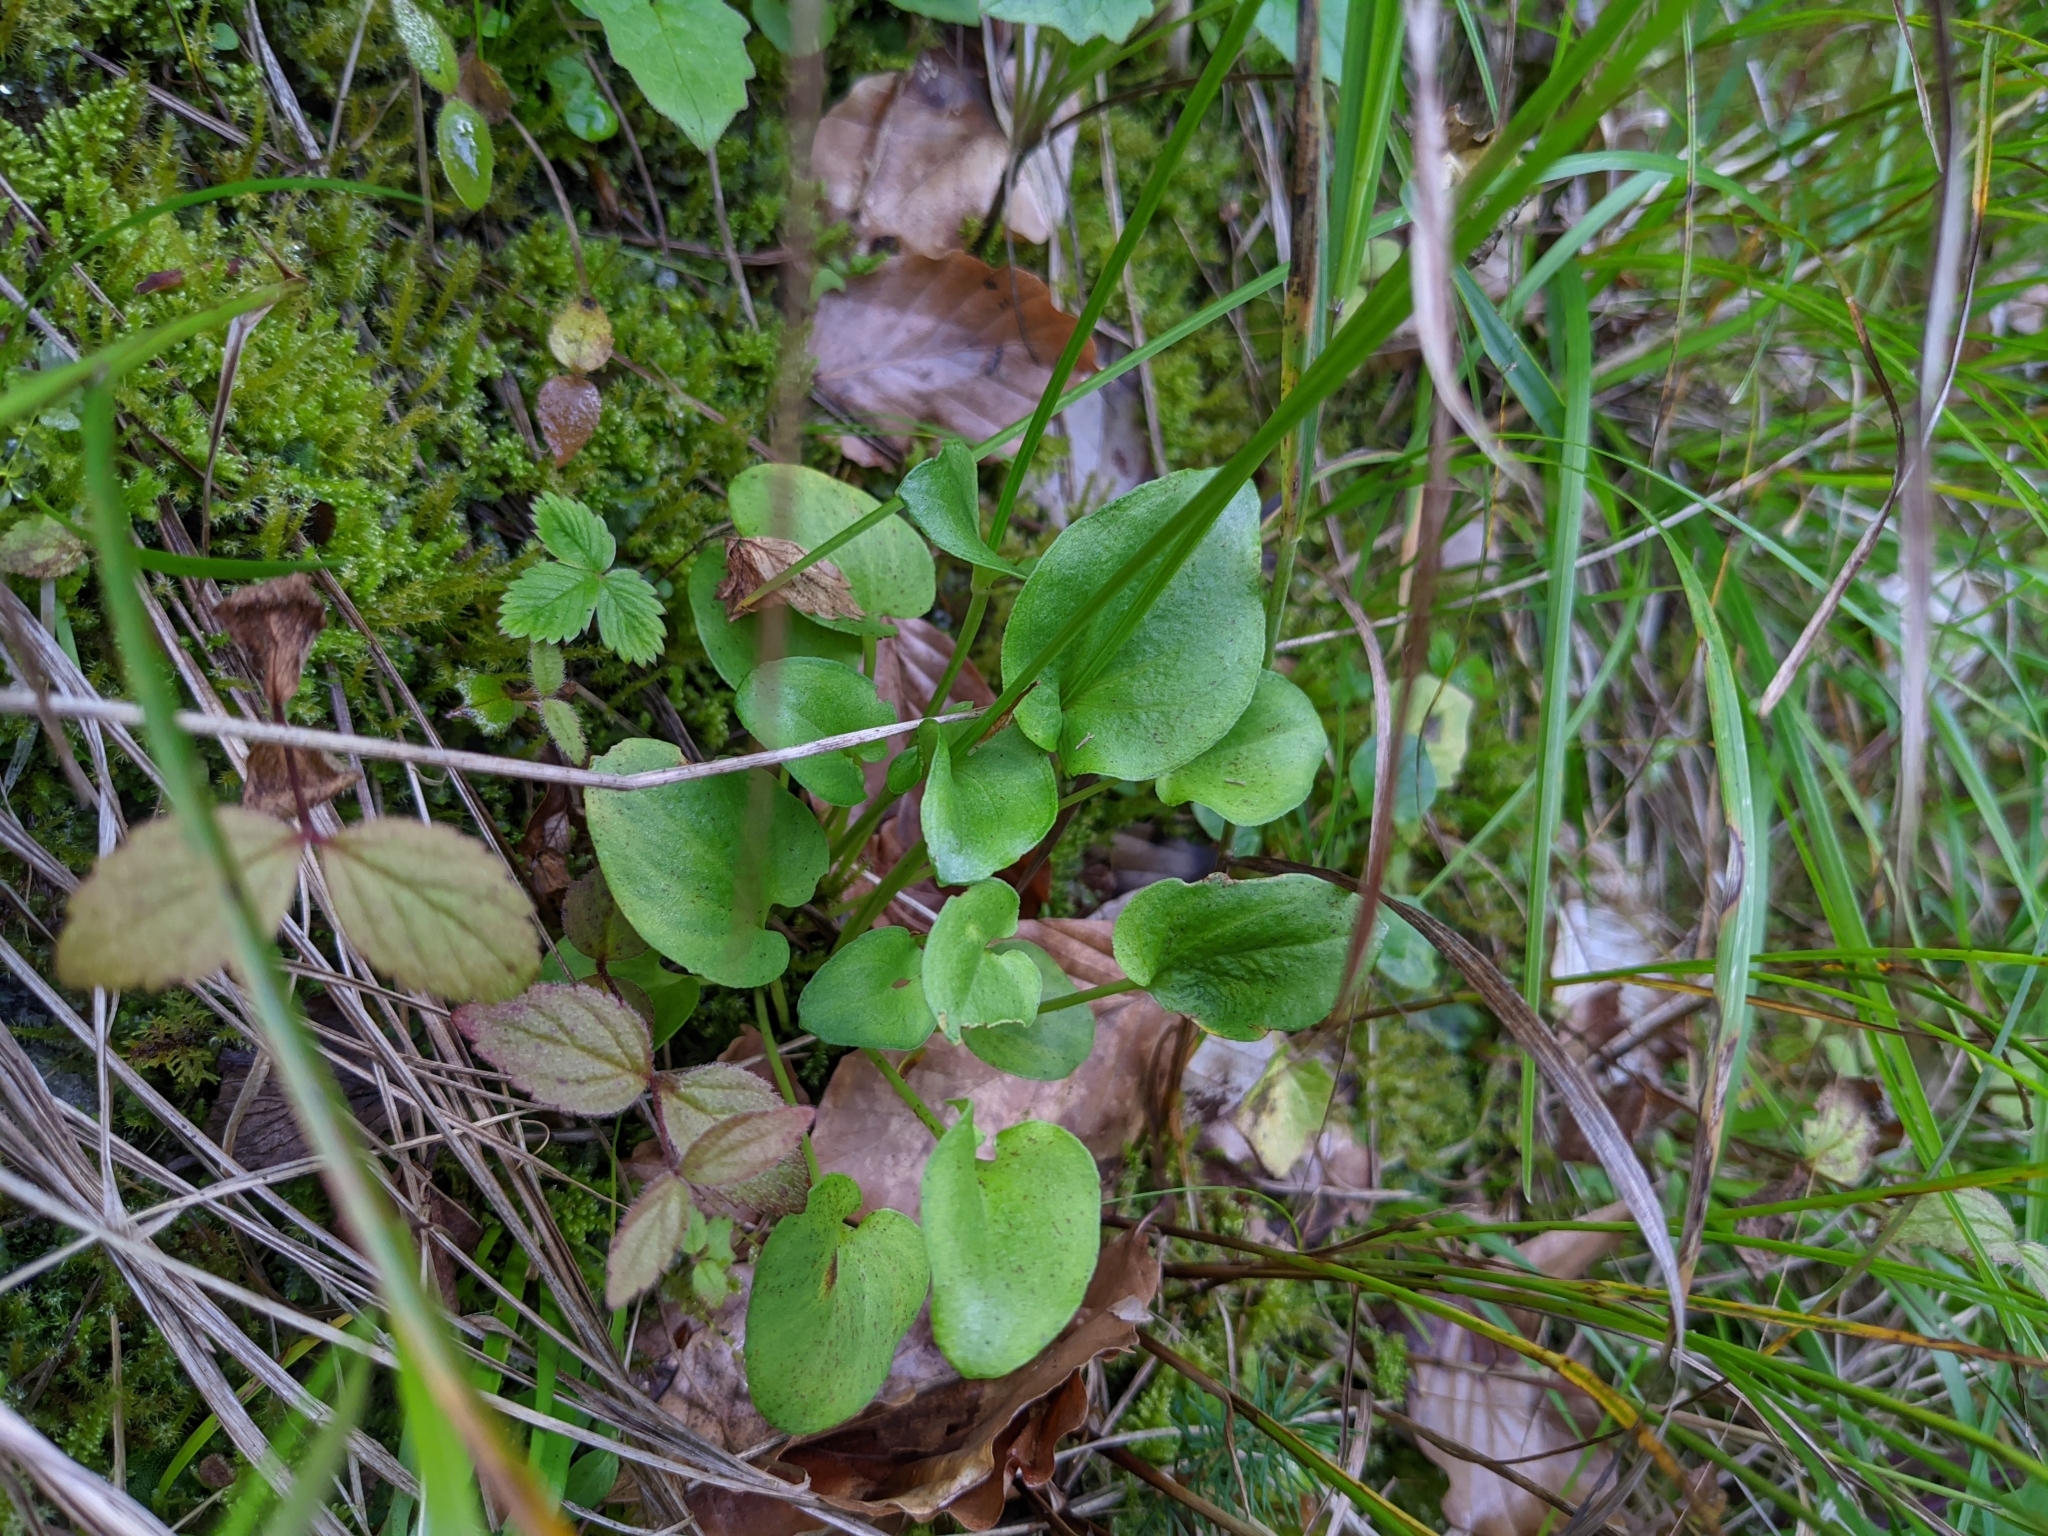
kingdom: Plantae
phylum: Tracheophyta
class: Magnoliopsida
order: Celastrales
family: Parnassiaceae
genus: Parnassia
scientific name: Parnassia palustris
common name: Grass-of-parnassus
